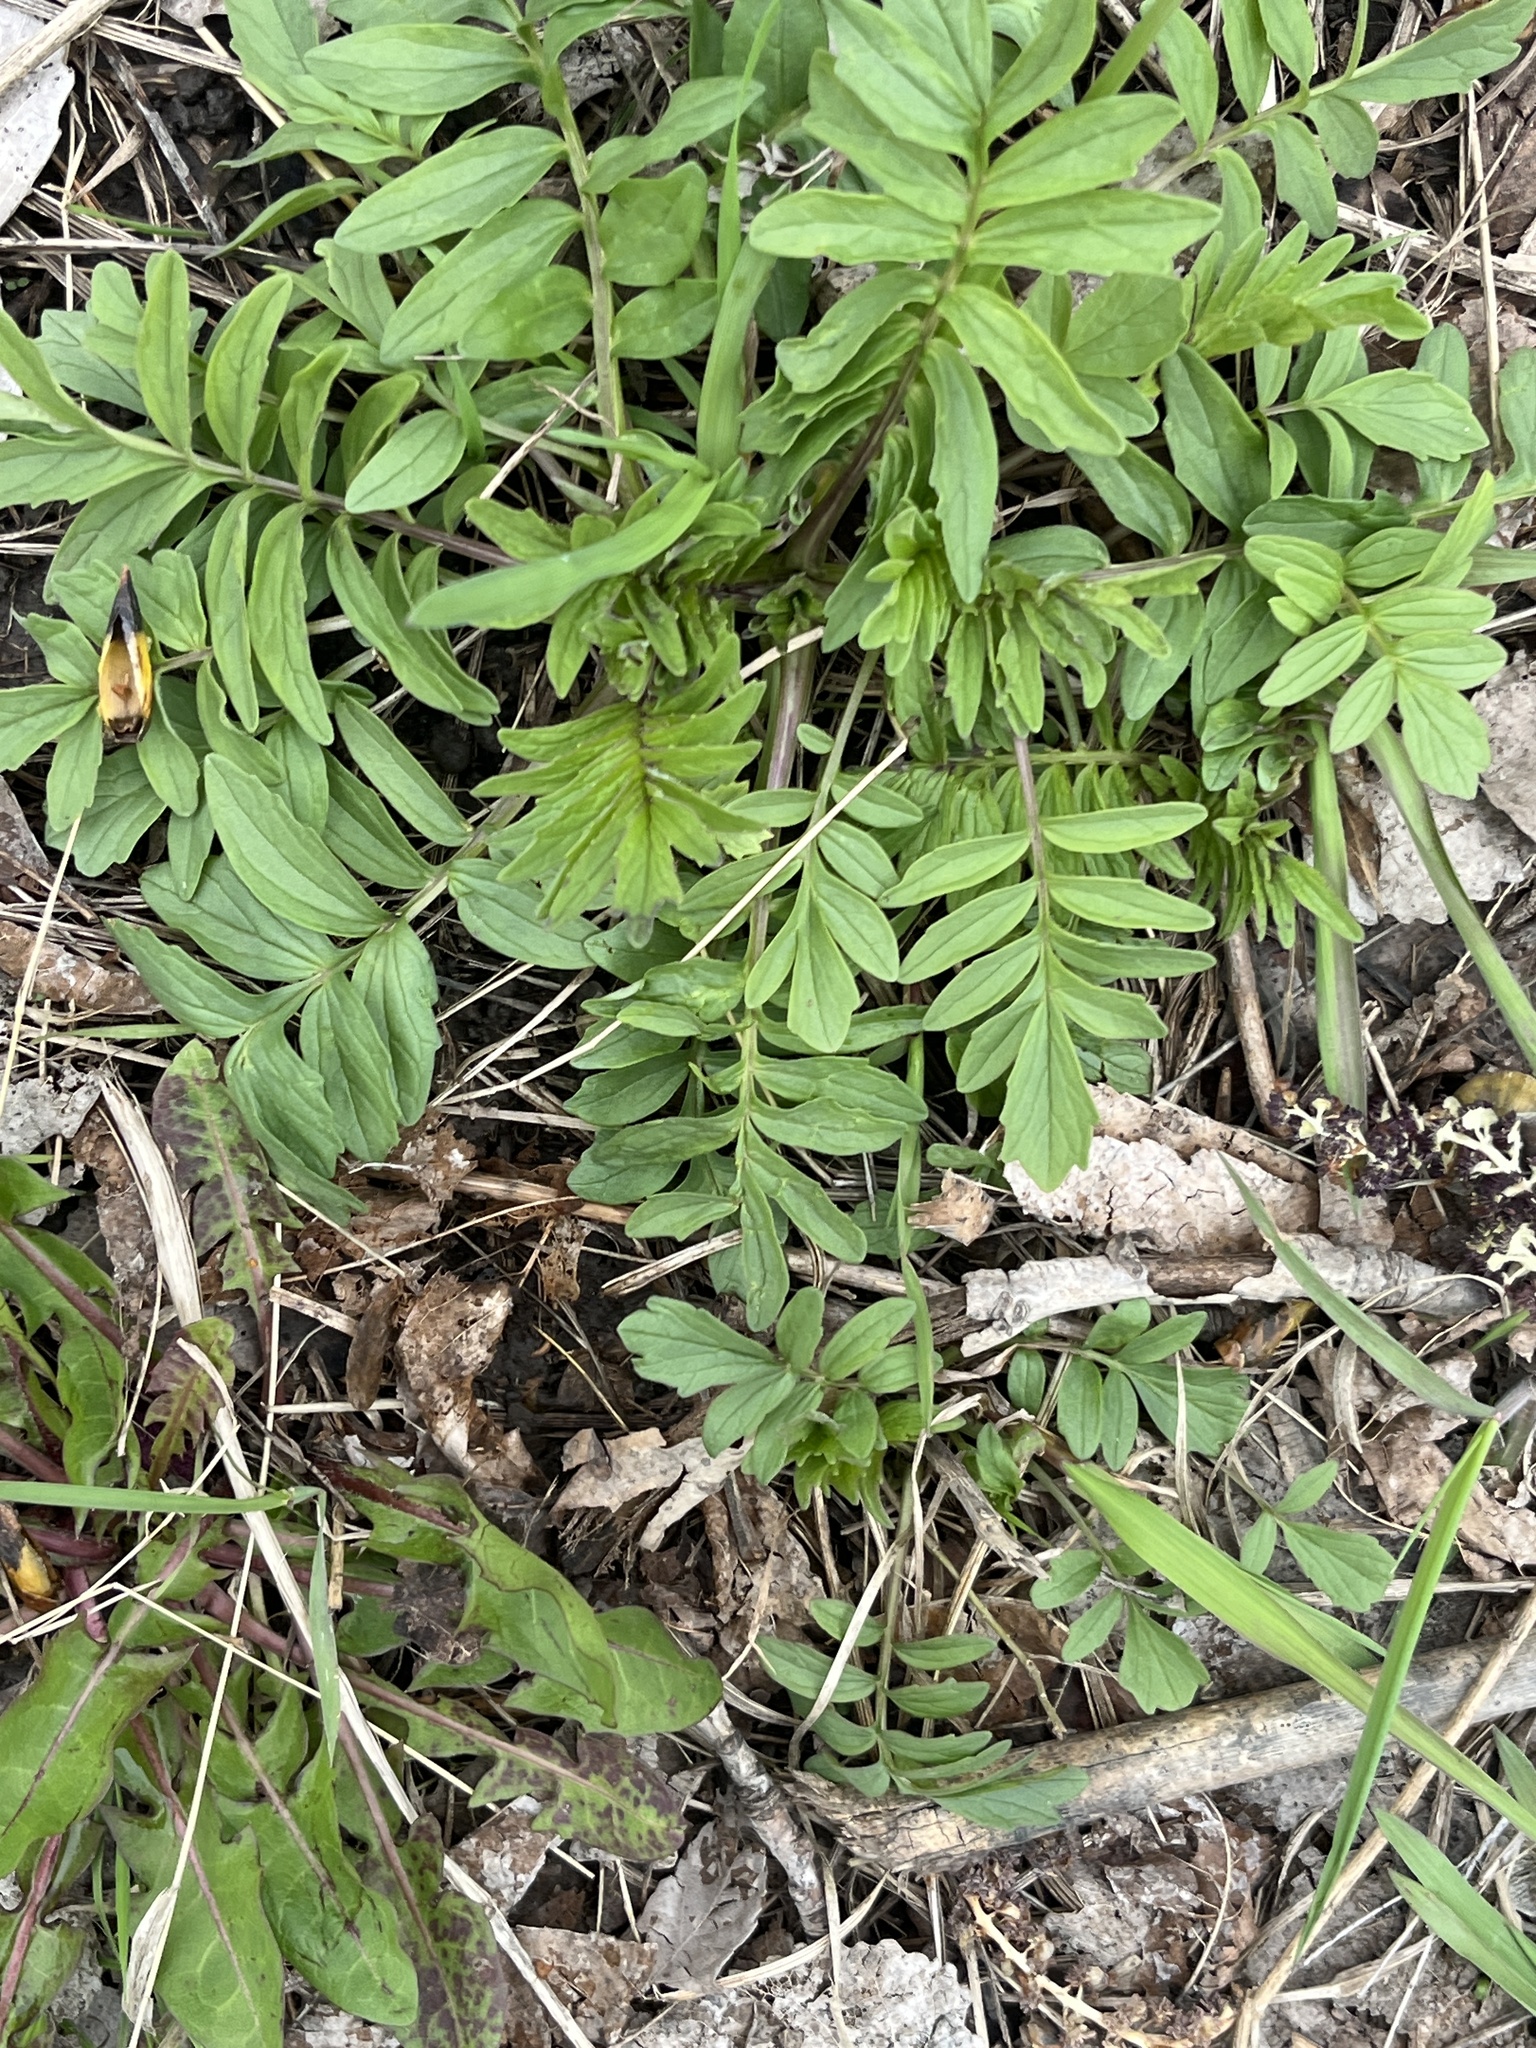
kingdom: Plantae
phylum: Tracheophyta
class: Magnoliopsida
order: Dipsacales
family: Caprifoliaceae
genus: Valeriana
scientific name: Valeriana officinalis
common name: Common valerian
